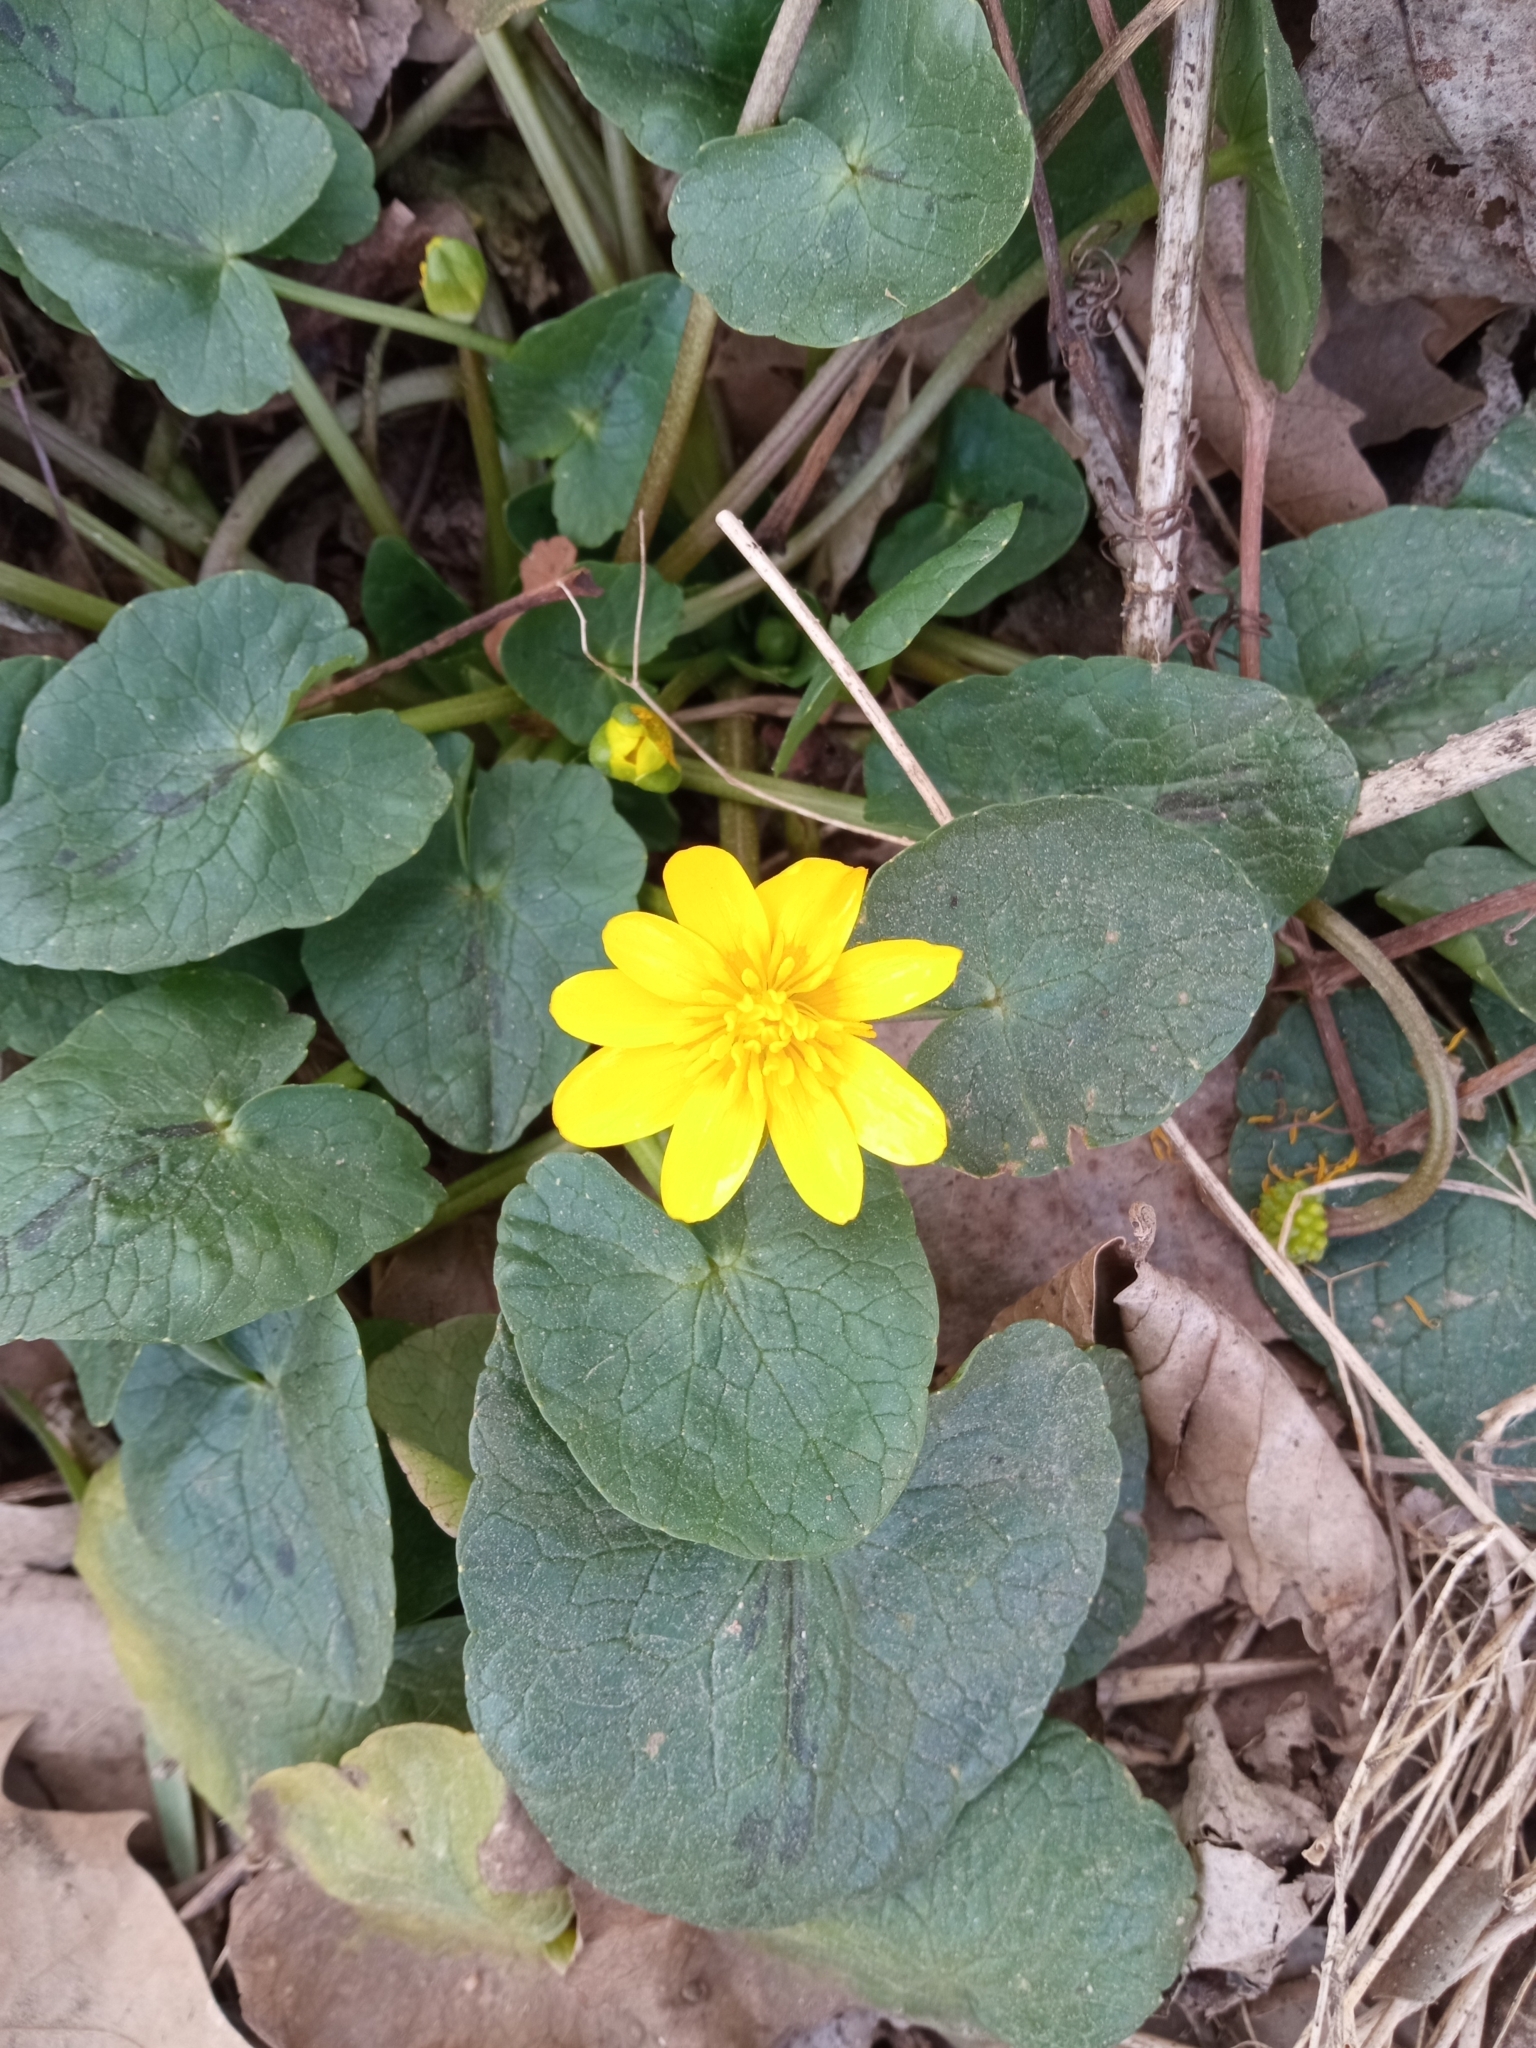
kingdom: Plantae
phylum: Tracheophyta
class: Magnoliopsida
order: Ranunculales
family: Ranunculaceae
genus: Ficaria
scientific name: Ficaria verna
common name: Lesser celandine
